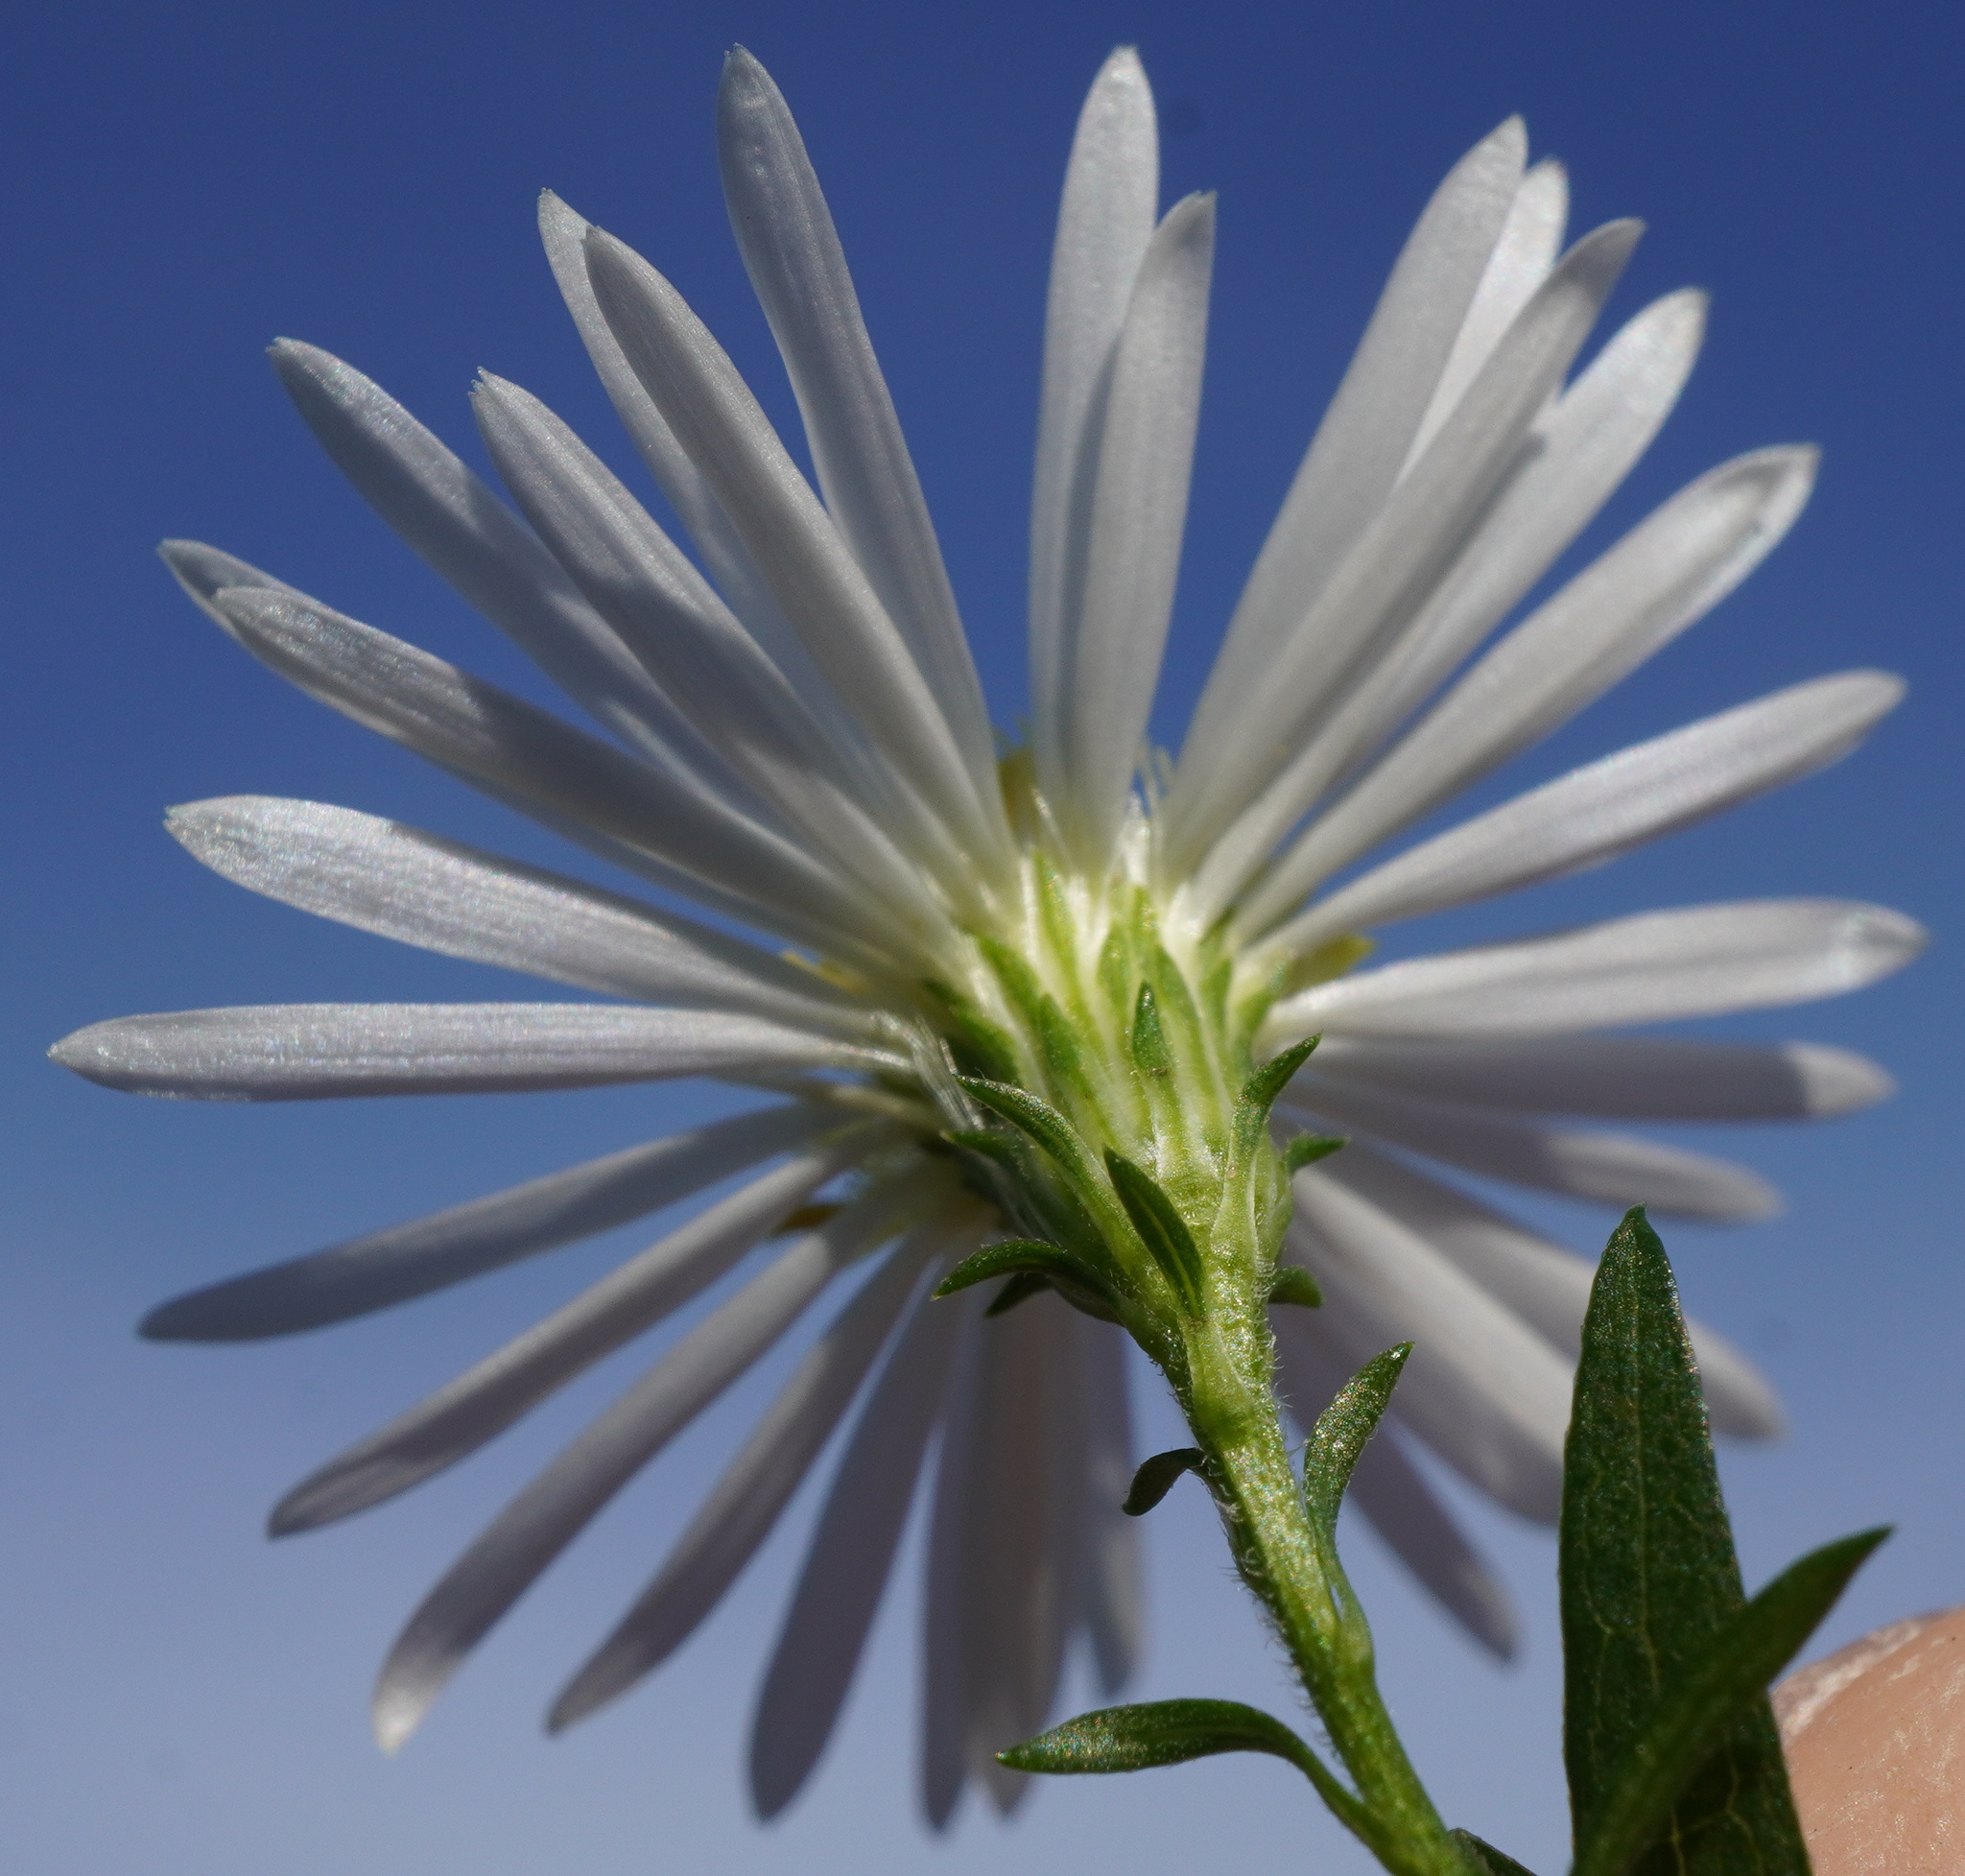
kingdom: Plantae
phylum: Tracheophyta
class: Magnoliopsida
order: Asterales
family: Asteraceae
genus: Symphyotrichum
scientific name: Symphyotrichum lanceolatum
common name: Panicled aster
